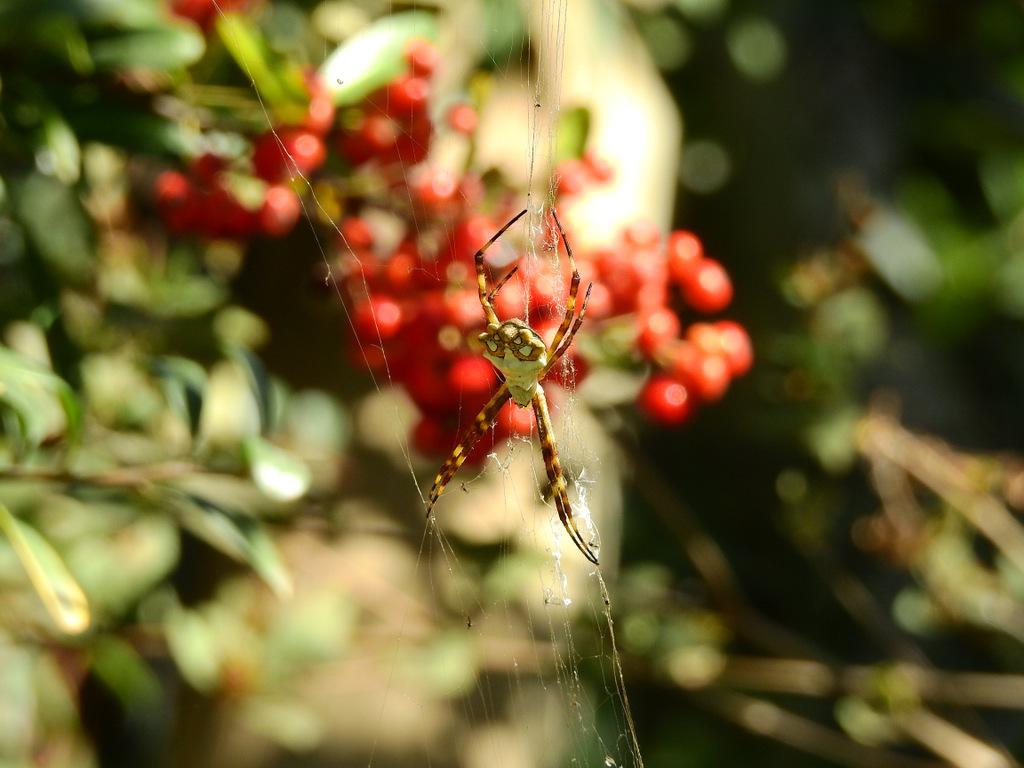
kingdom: Animalia
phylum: Arthropoda
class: Arachnida
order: Araneae
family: Araneidae
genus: Argiope
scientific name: Argiope argentata
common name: Orb weavers
